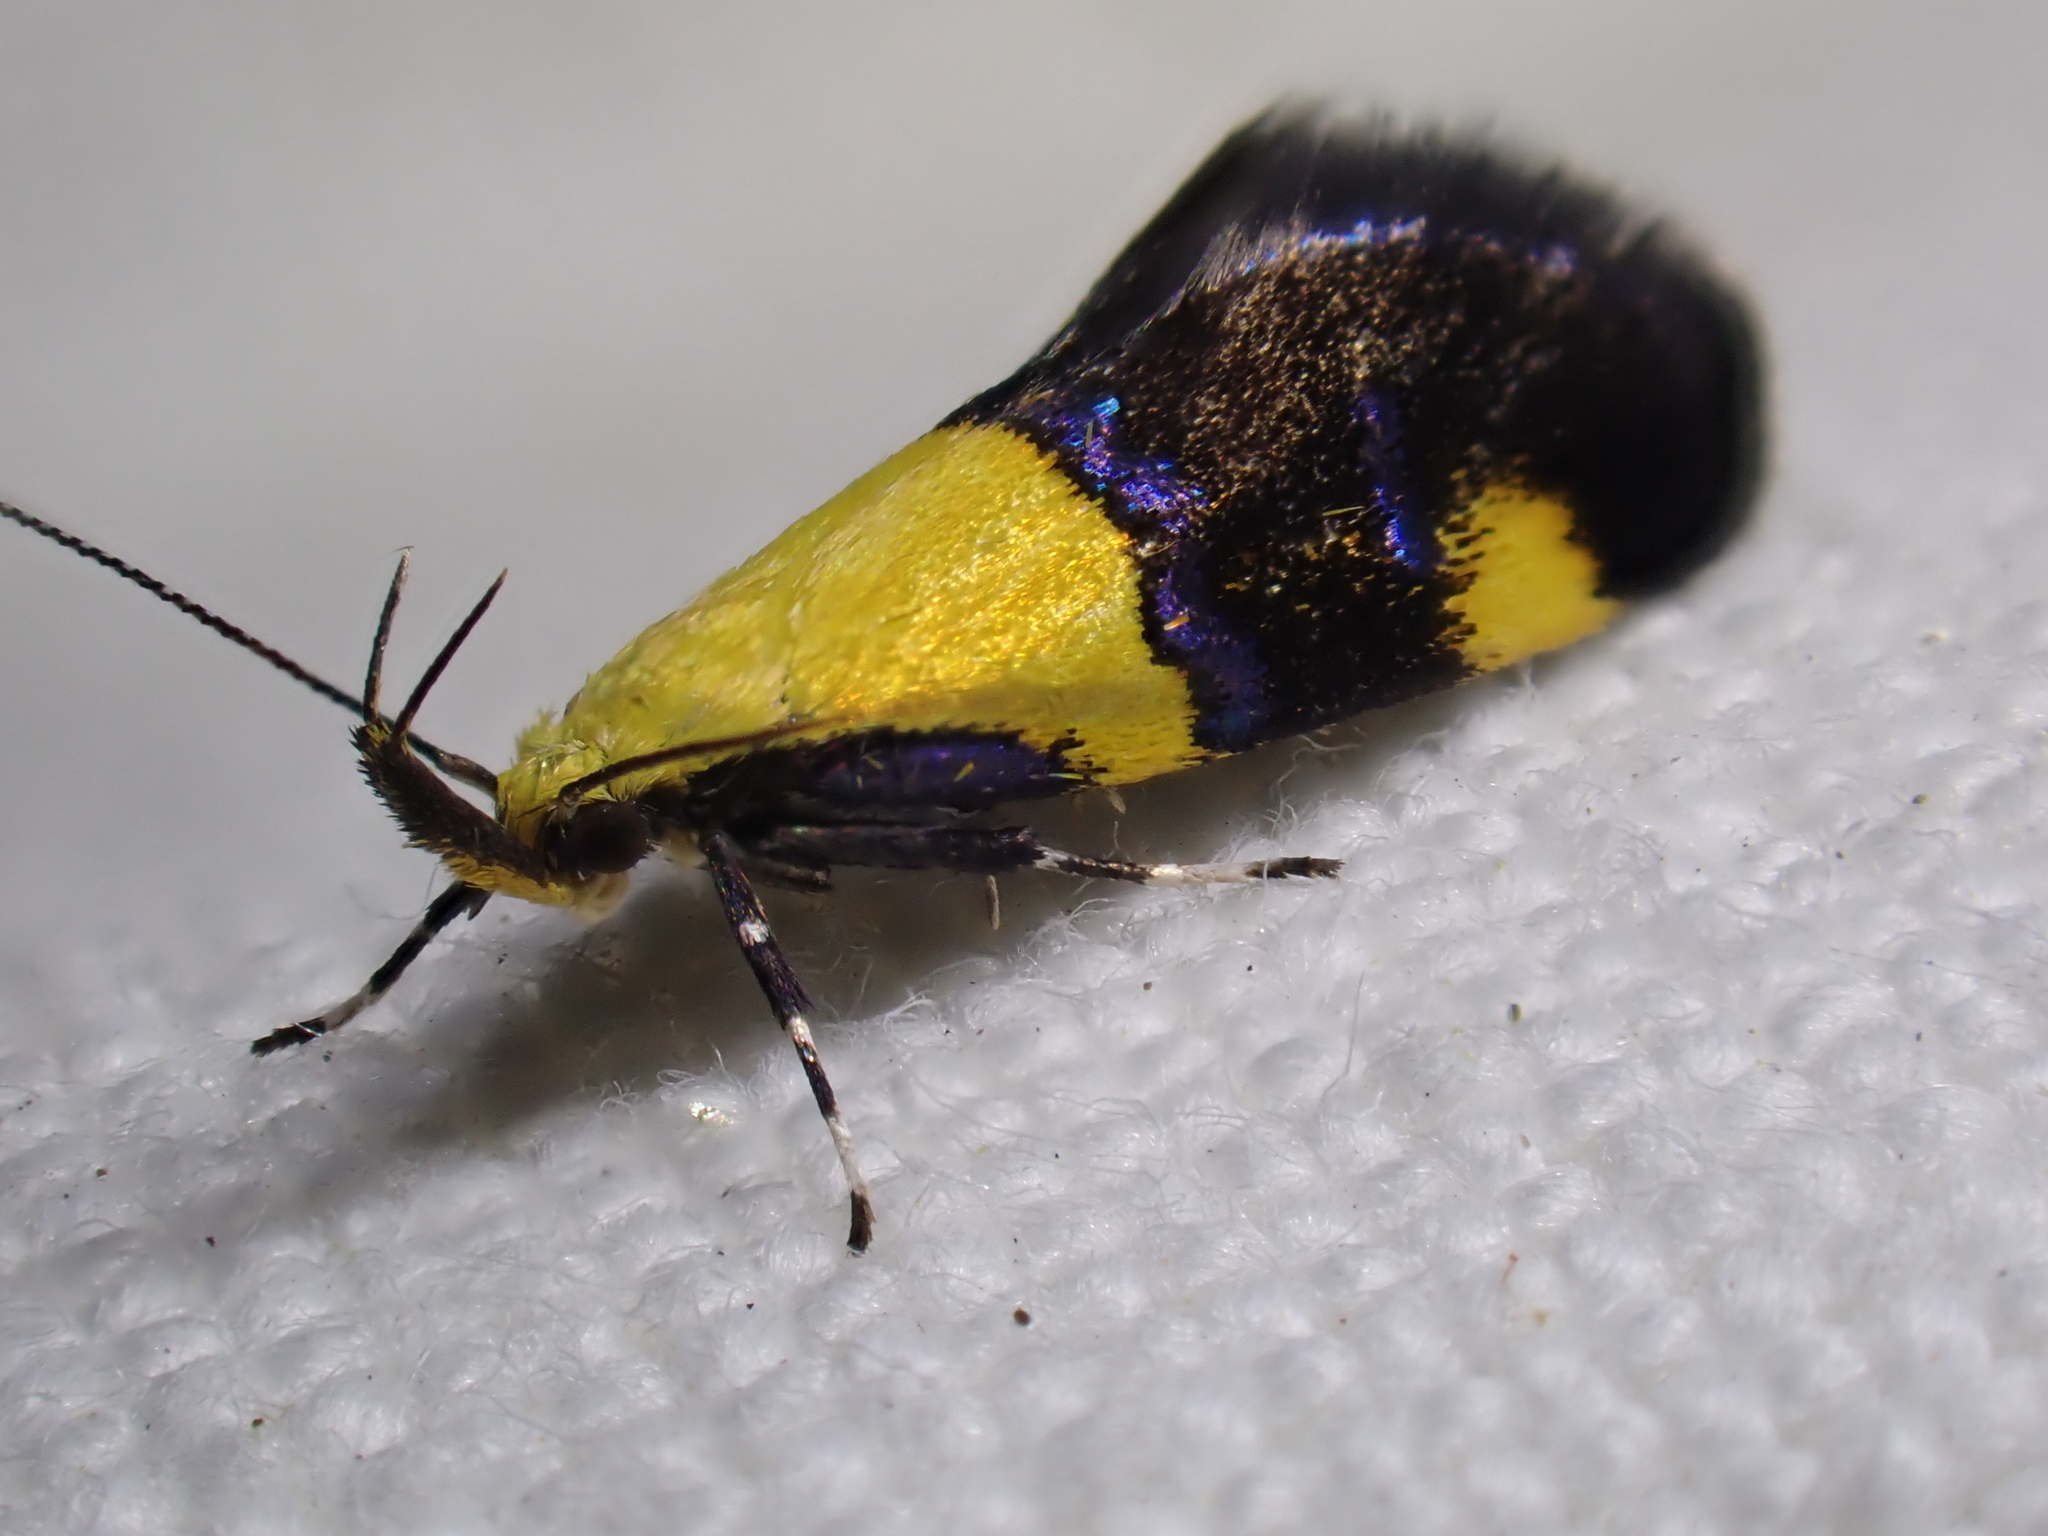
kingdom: Animalia
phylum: Arthropoda
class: Insecta
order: Lepidoptera
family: Oecophoridae
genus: Oecophora
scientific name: Oecophora bractella
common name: Gold-base tubic
